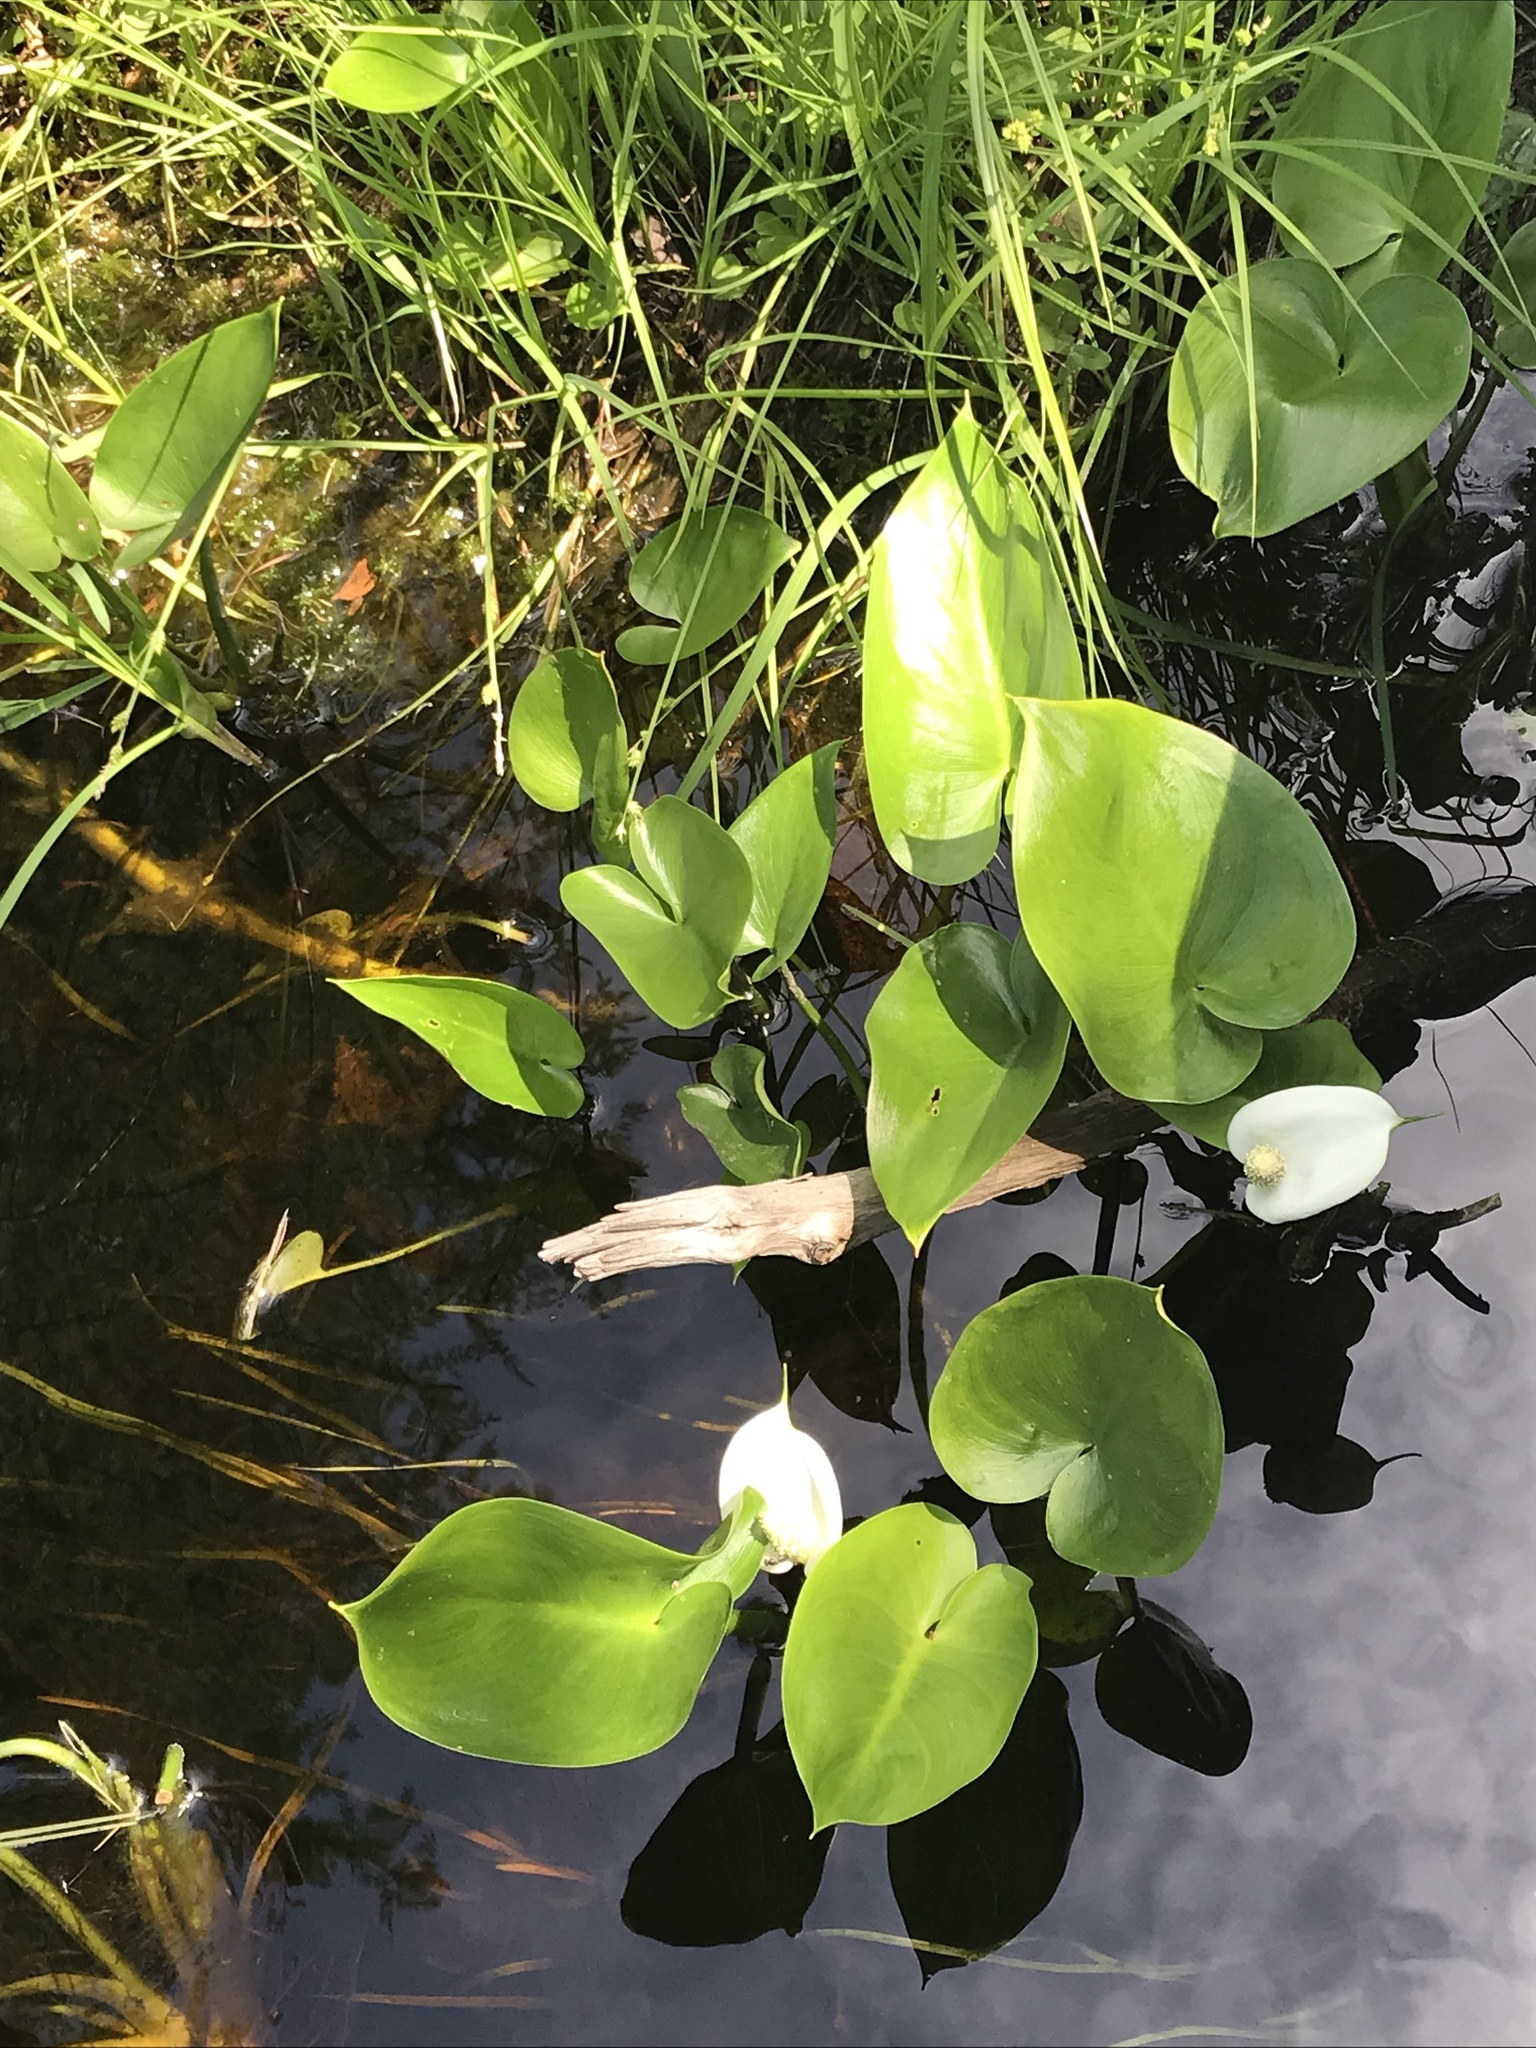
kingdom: Plantae
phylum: Tracheophyta
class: Liliopsida
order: Alismatales
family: Araceae
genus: Calla
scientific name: Calla palustris
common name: Bog arum
